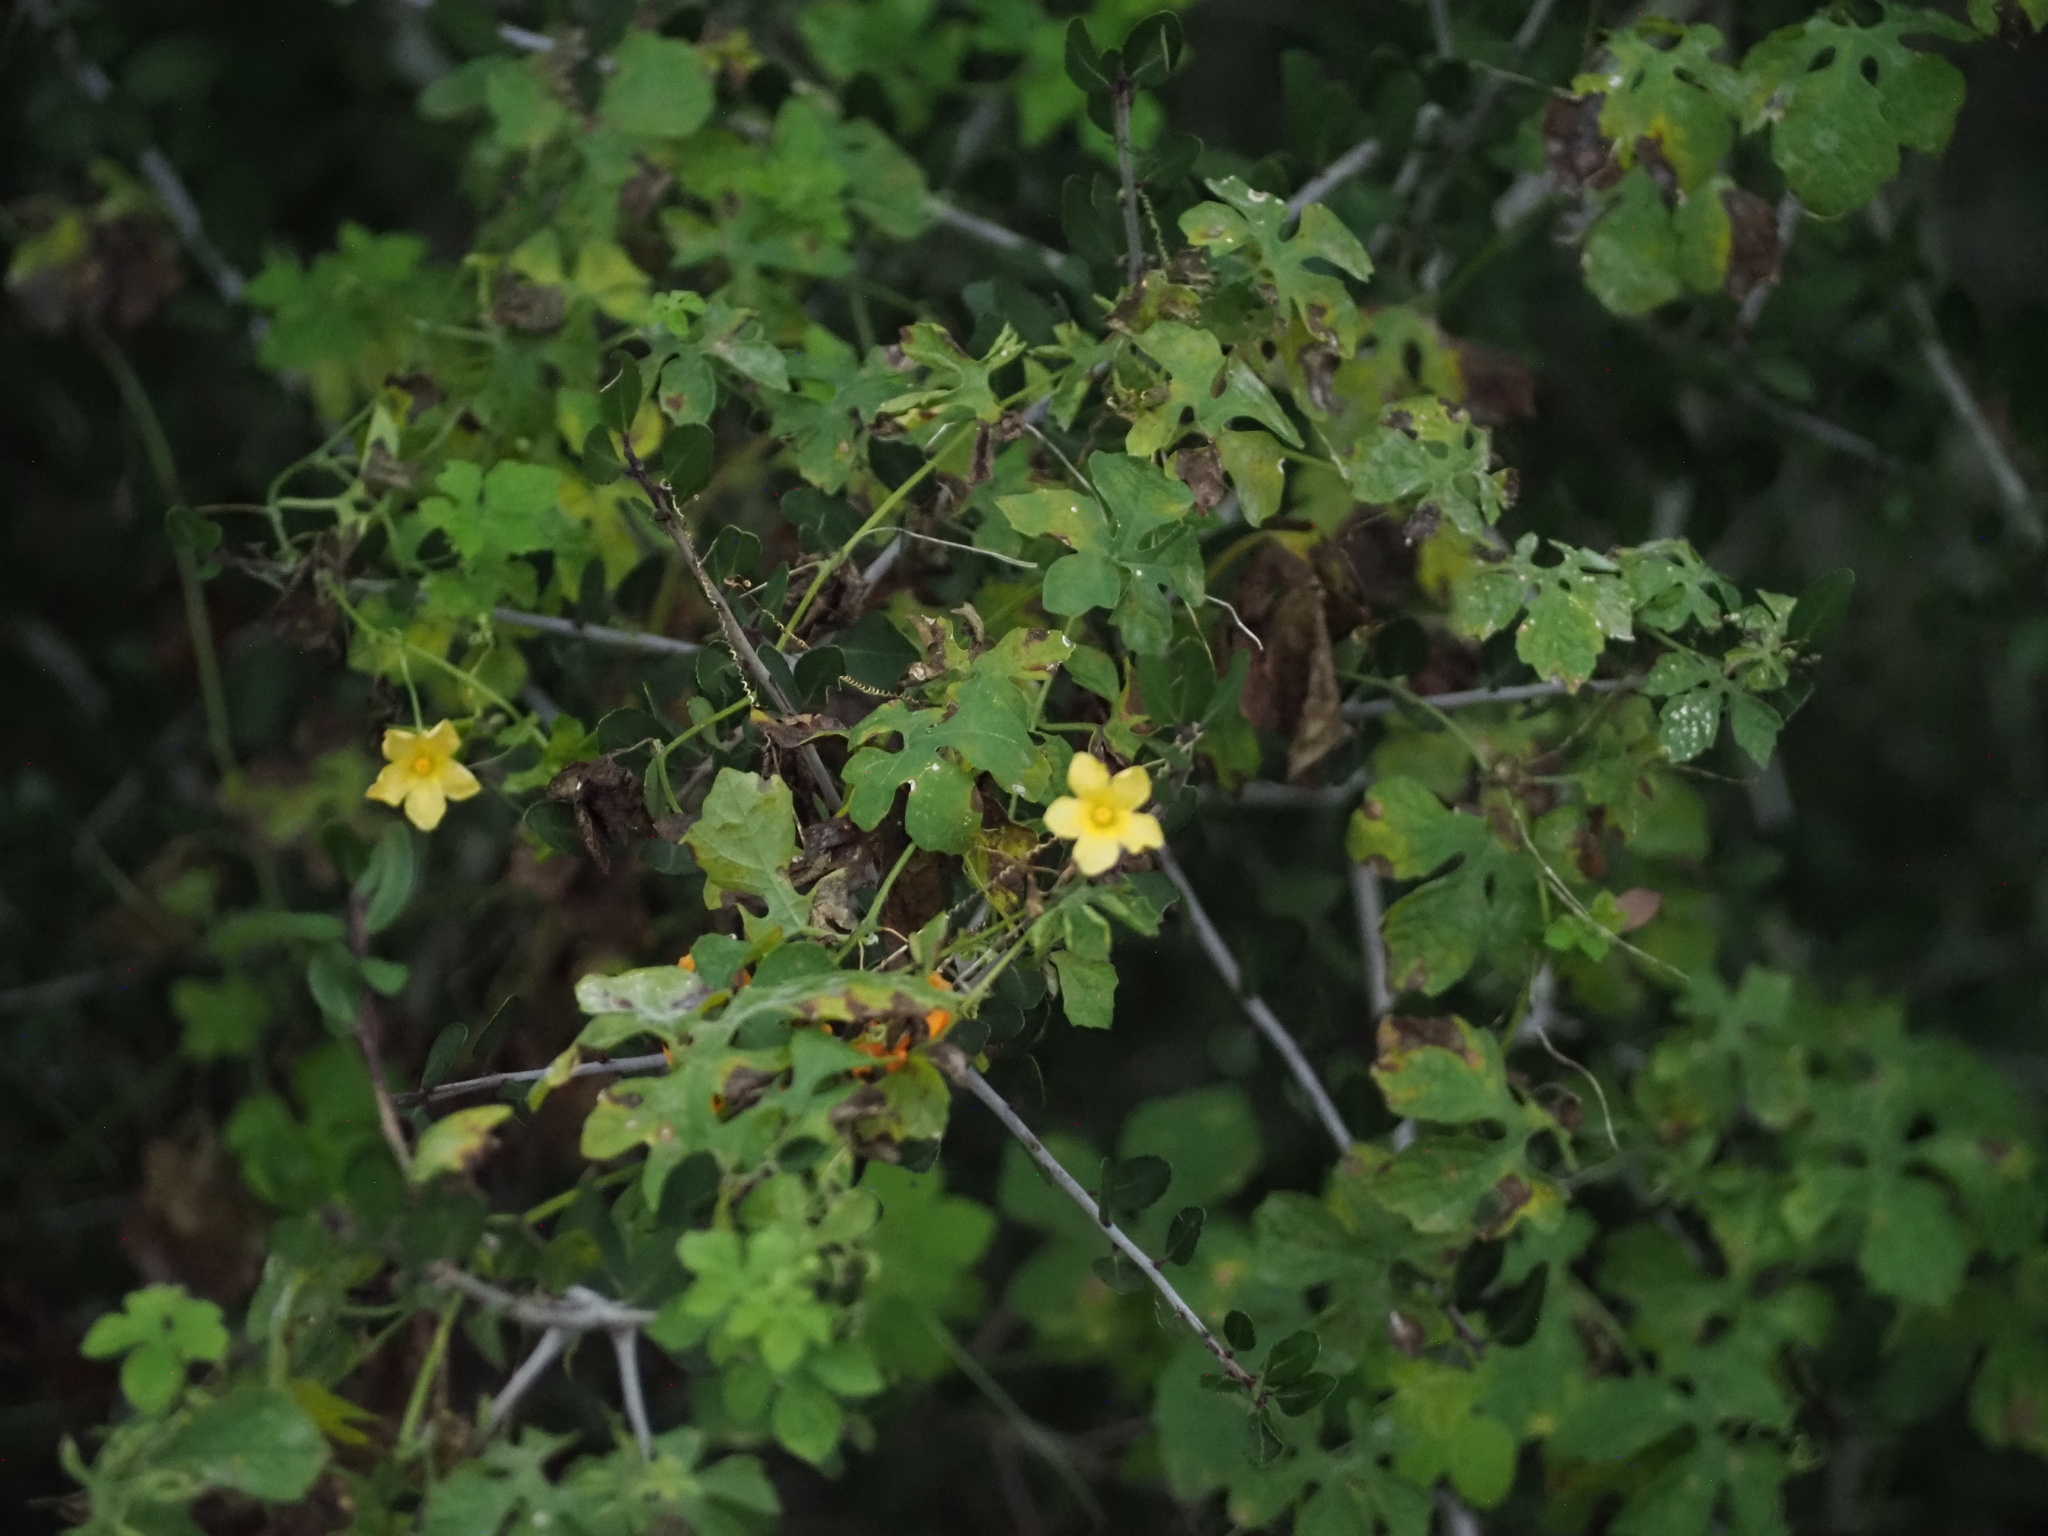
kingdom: Plantae
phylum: Tracheophyta
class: Magnoliopsida
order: Cucurbitales
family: Cucurbitaceae
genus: Momordica
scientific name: Momordica charantia
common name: Balsampear
